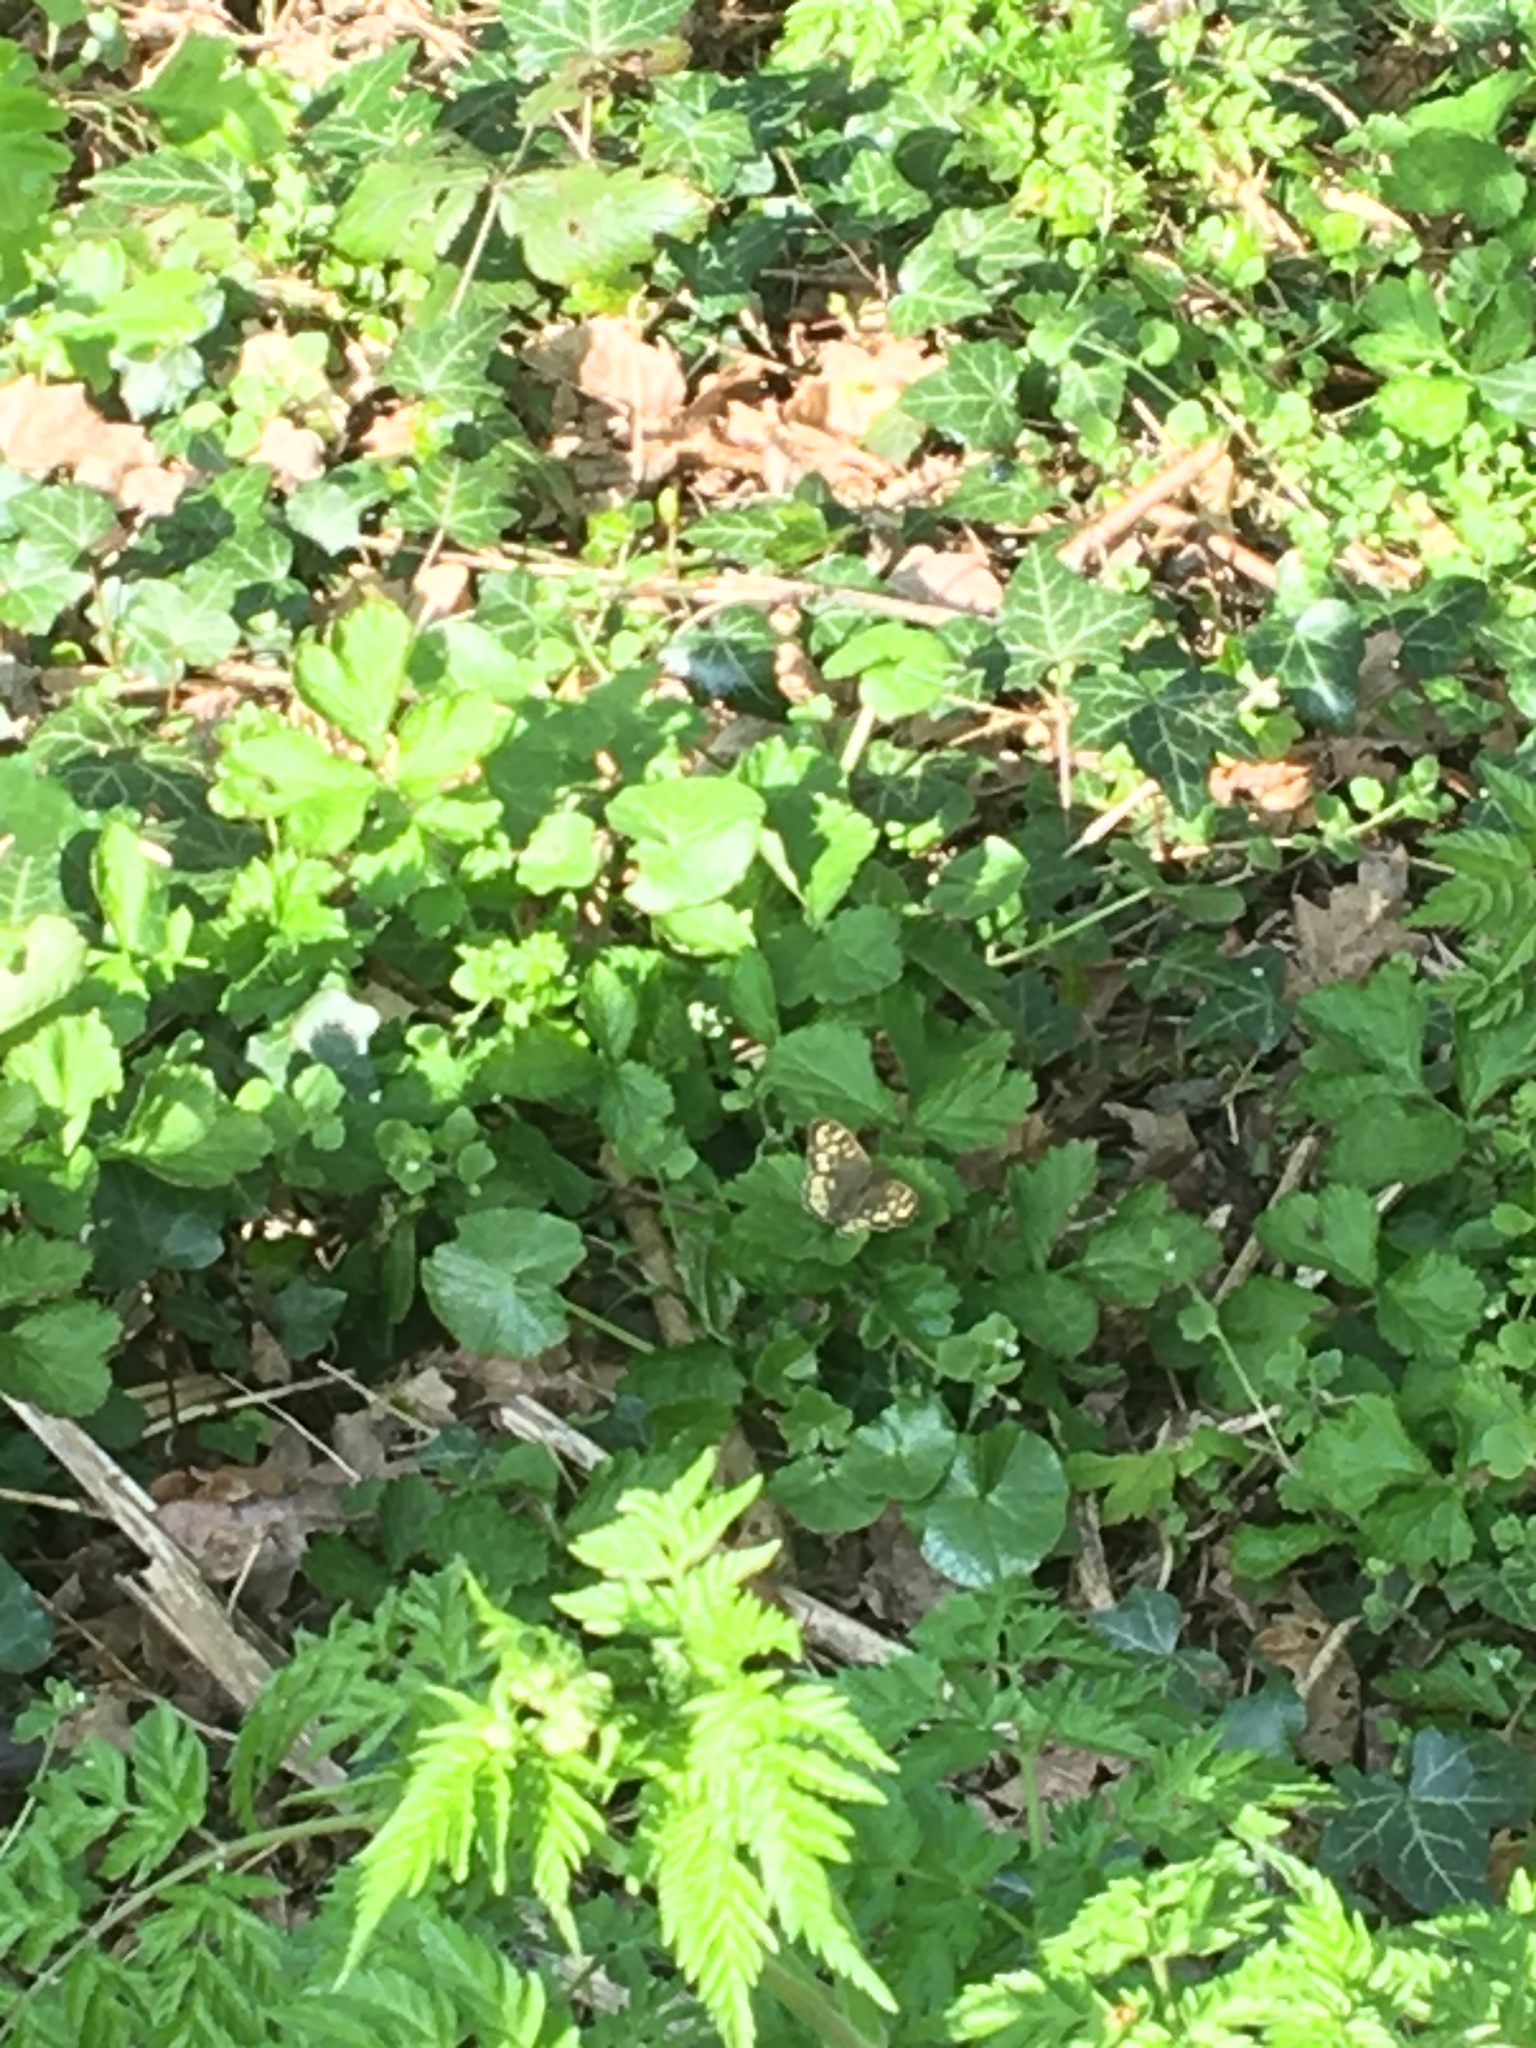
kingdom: Animalia
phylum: Arthropoda
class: Insecta
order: Lepidoptera
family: Nymphalidae
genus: Pararge
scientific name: Pararge aegeria
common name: Speckled wood
